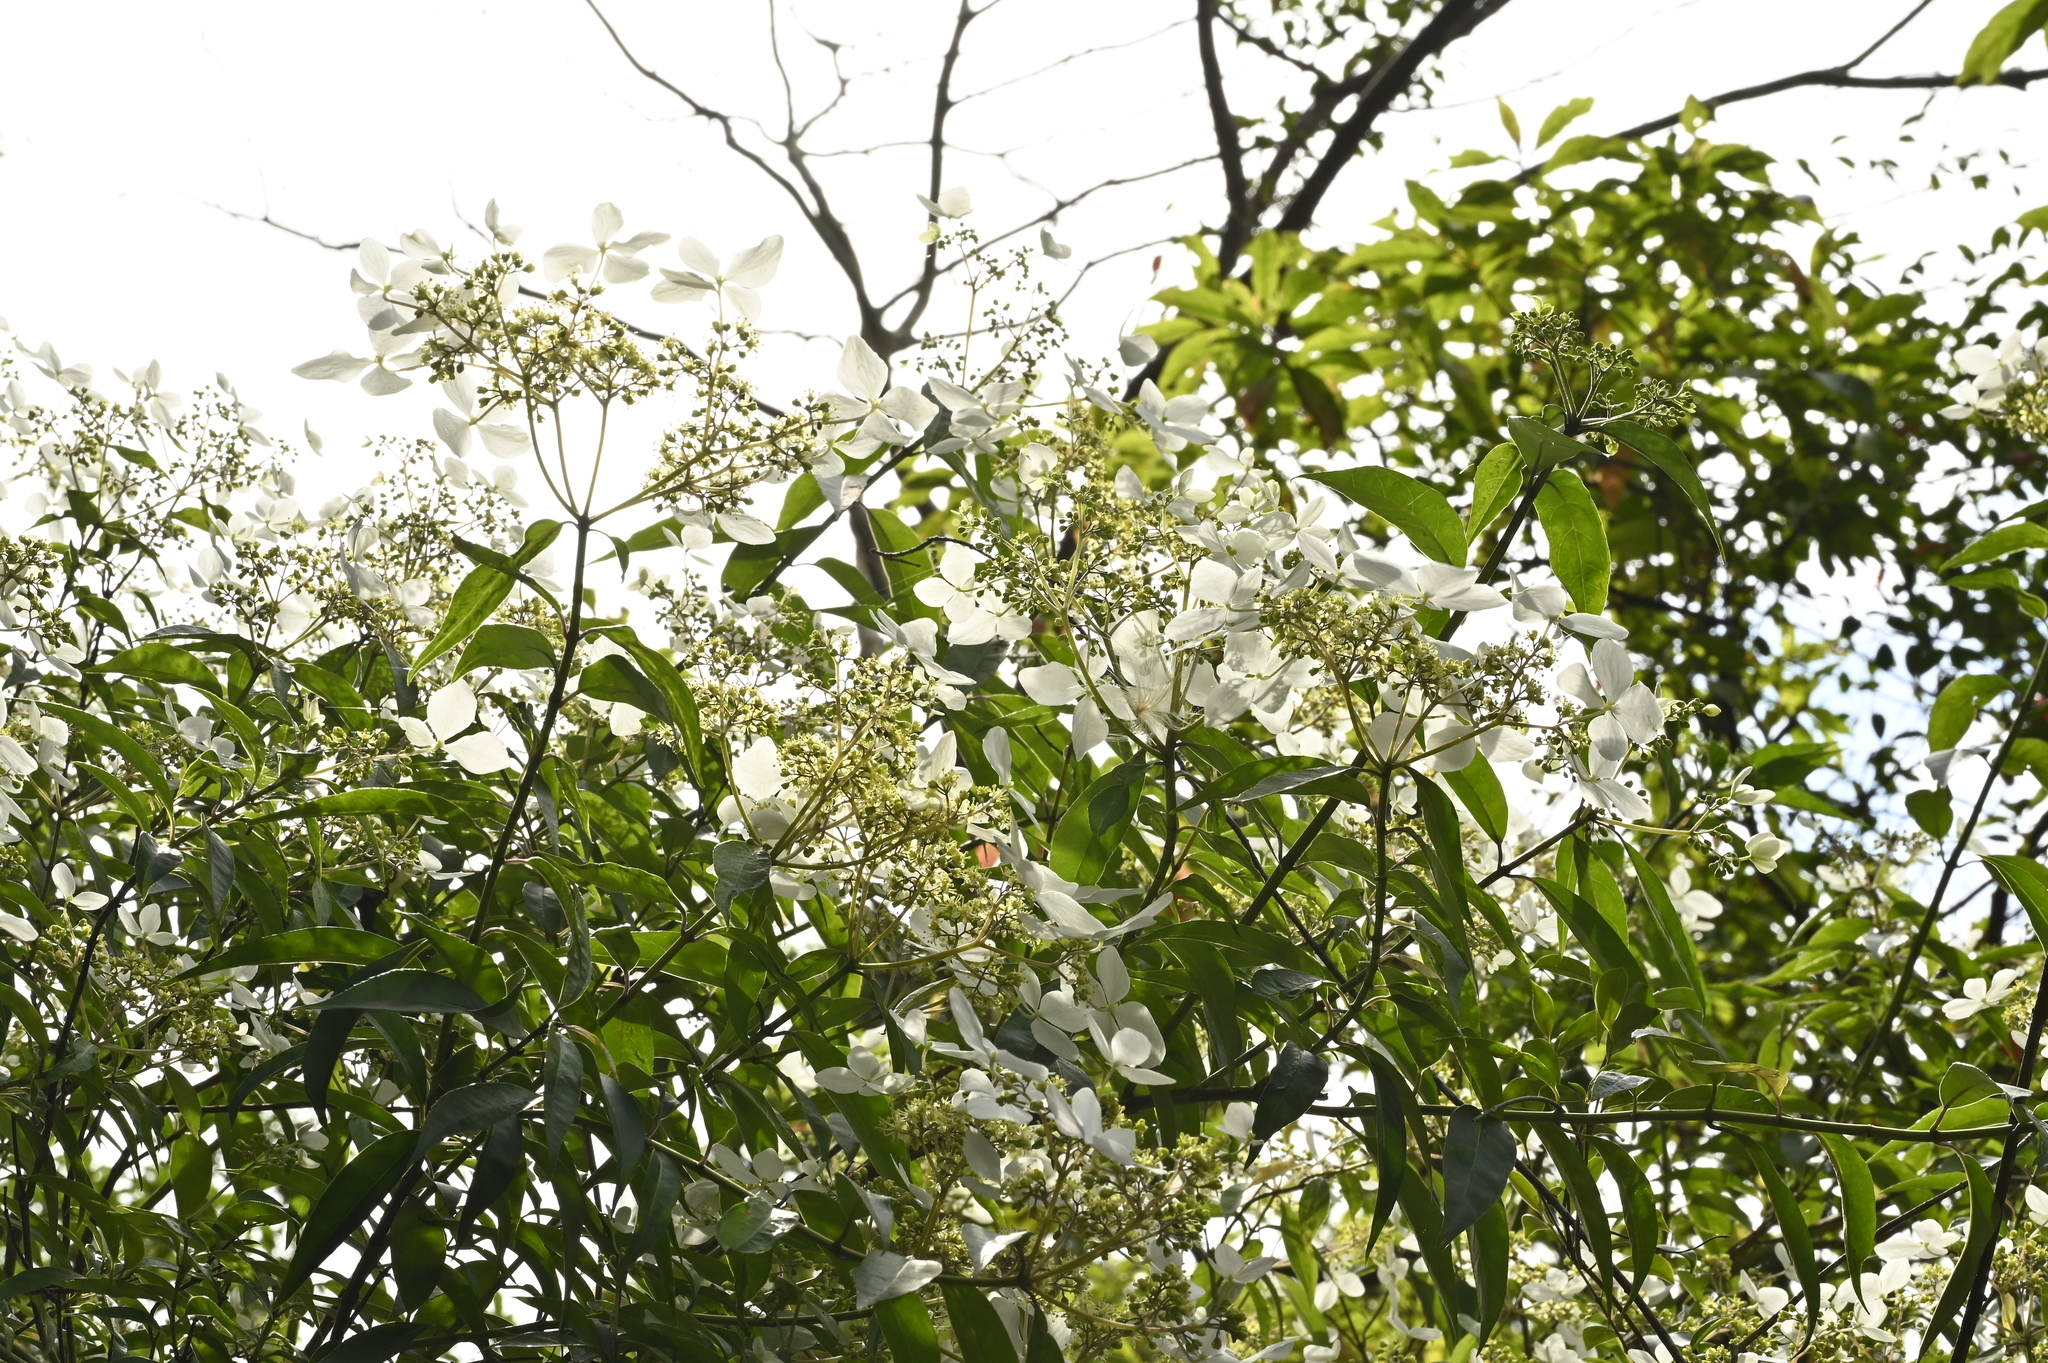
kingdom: Plantae
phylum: Tracheophyta
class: Magnoliopsida
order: Cornales
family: Hydrangeaceae
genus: Hydrangea
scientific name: Hydrangea chinensis
